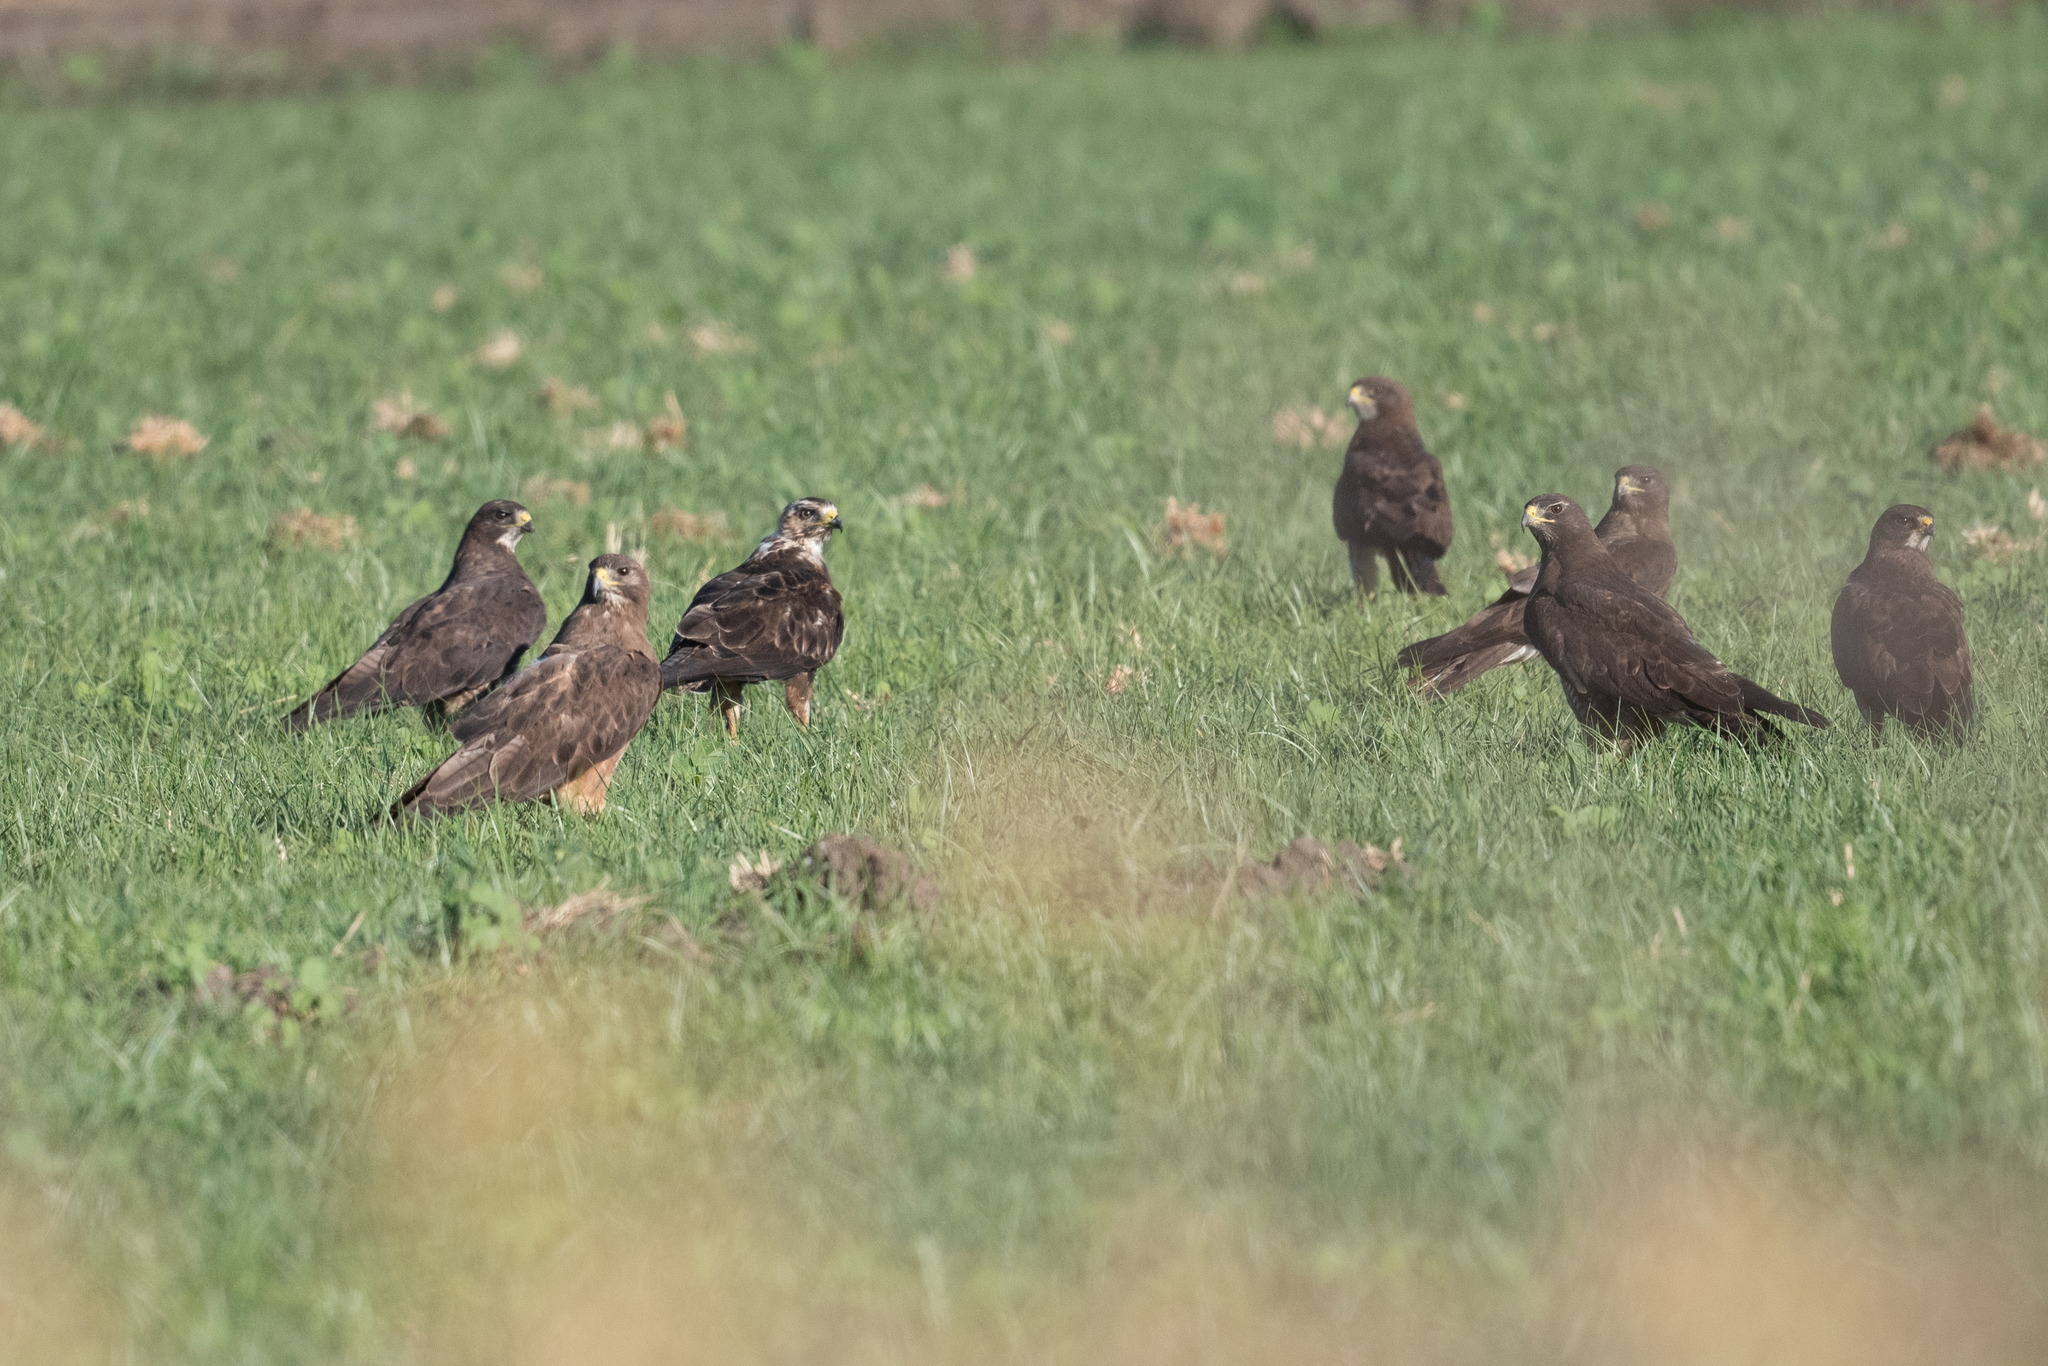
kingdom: Animalia
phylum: Chordata
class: Aves
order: Accipitriformes
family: Accipitridae
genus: Buteo
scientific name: Buteo swainsoni
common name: Swainson's hawk
